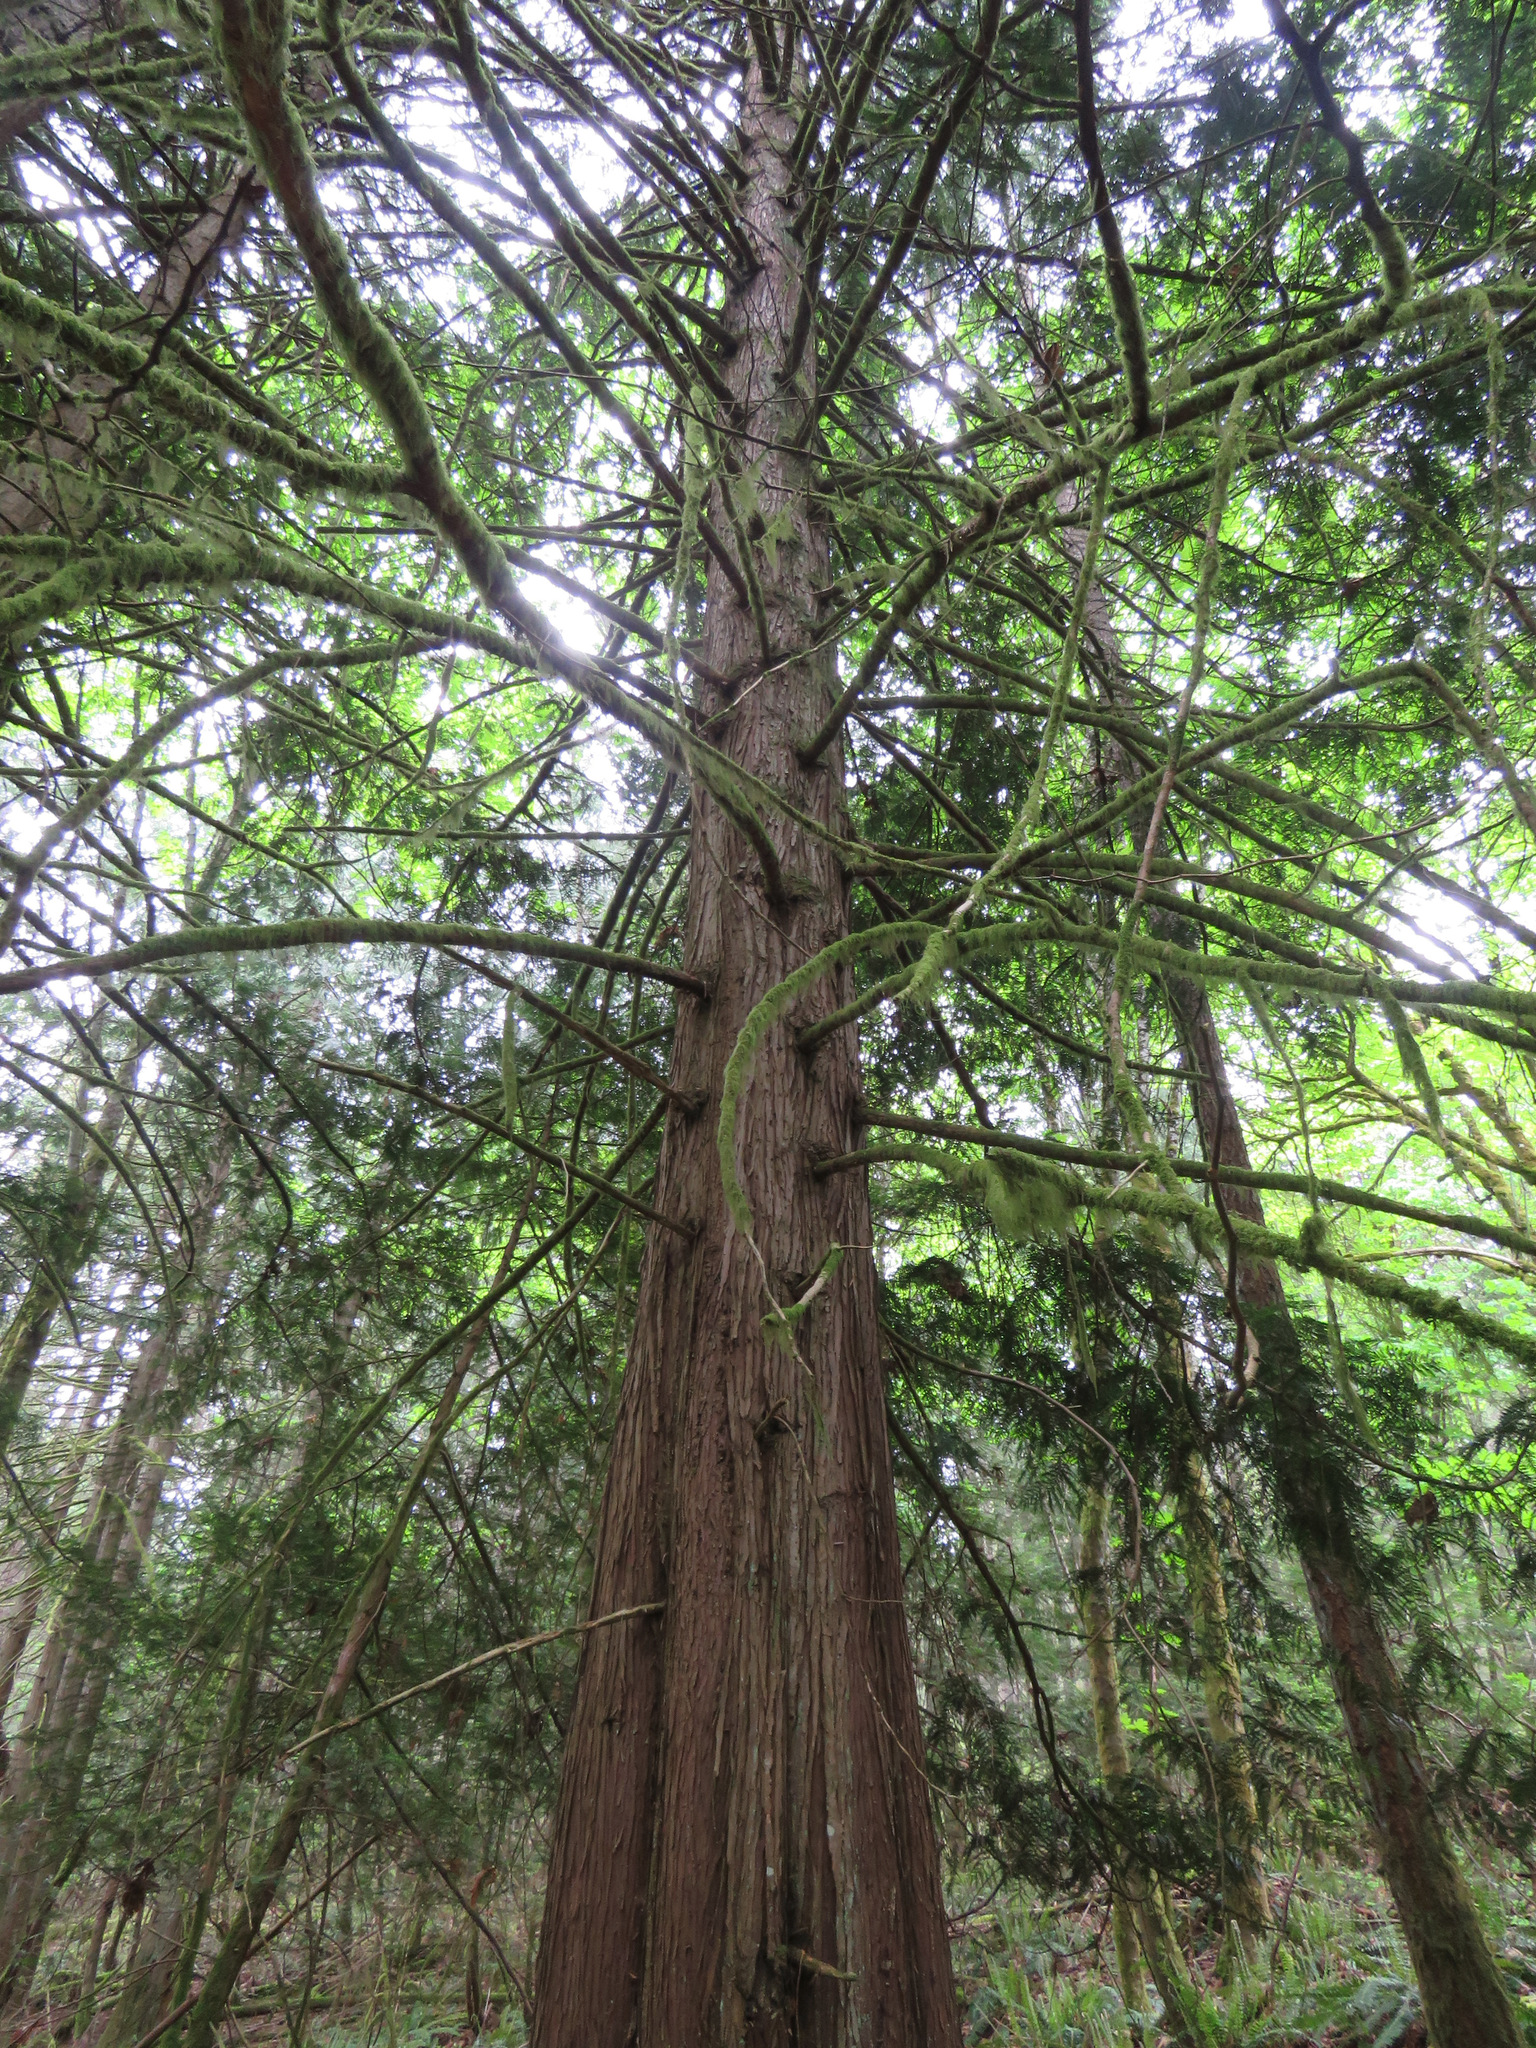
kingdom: Plantae
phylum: Tracheophyta
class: Pinopsida
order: Pinales
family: Cupressaceae
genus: Thuja
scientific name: Thuja plicata
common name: Western red-cedar
